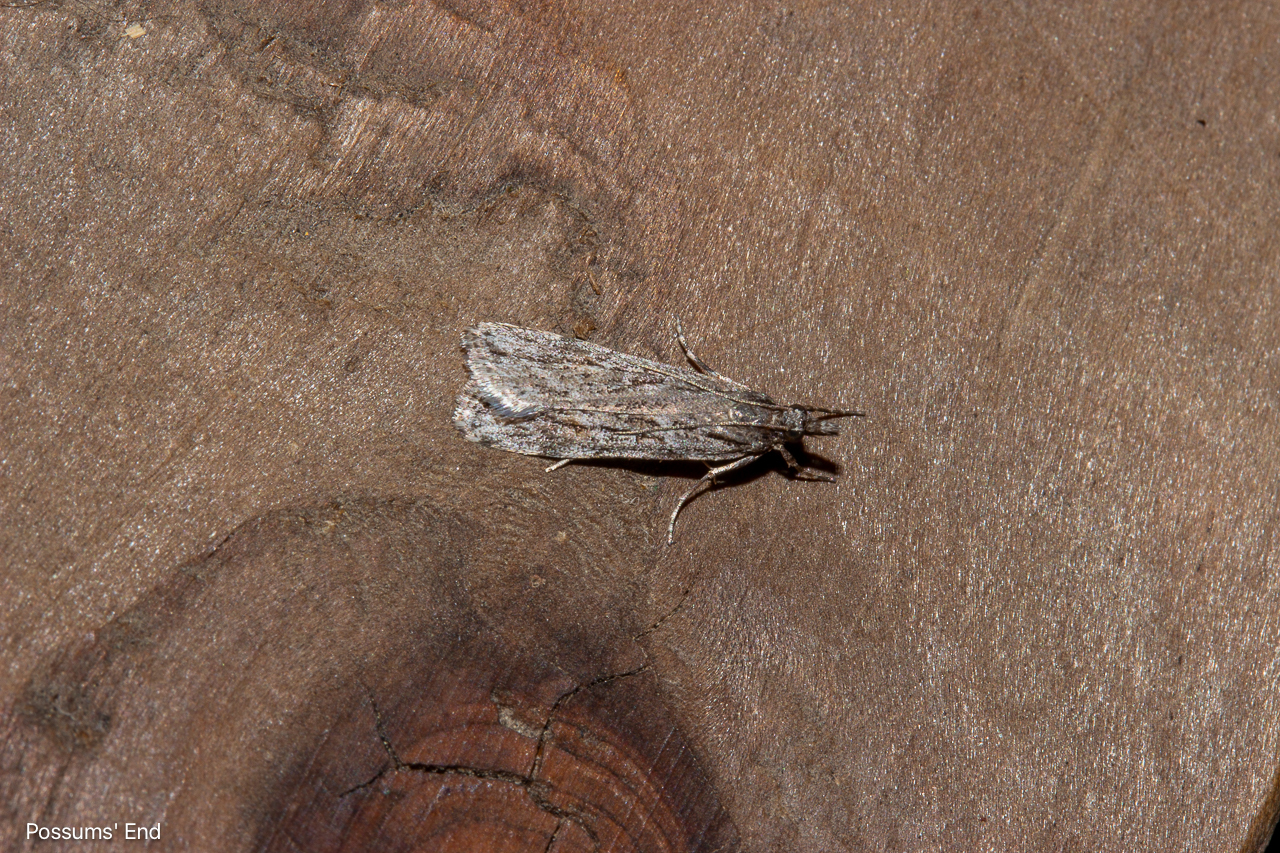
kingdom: Animalia
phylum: Arthropoda
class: Insecta
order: Lepidoptera
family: Crambidae
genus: Scoparia
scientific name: Scoparia chalicodes
